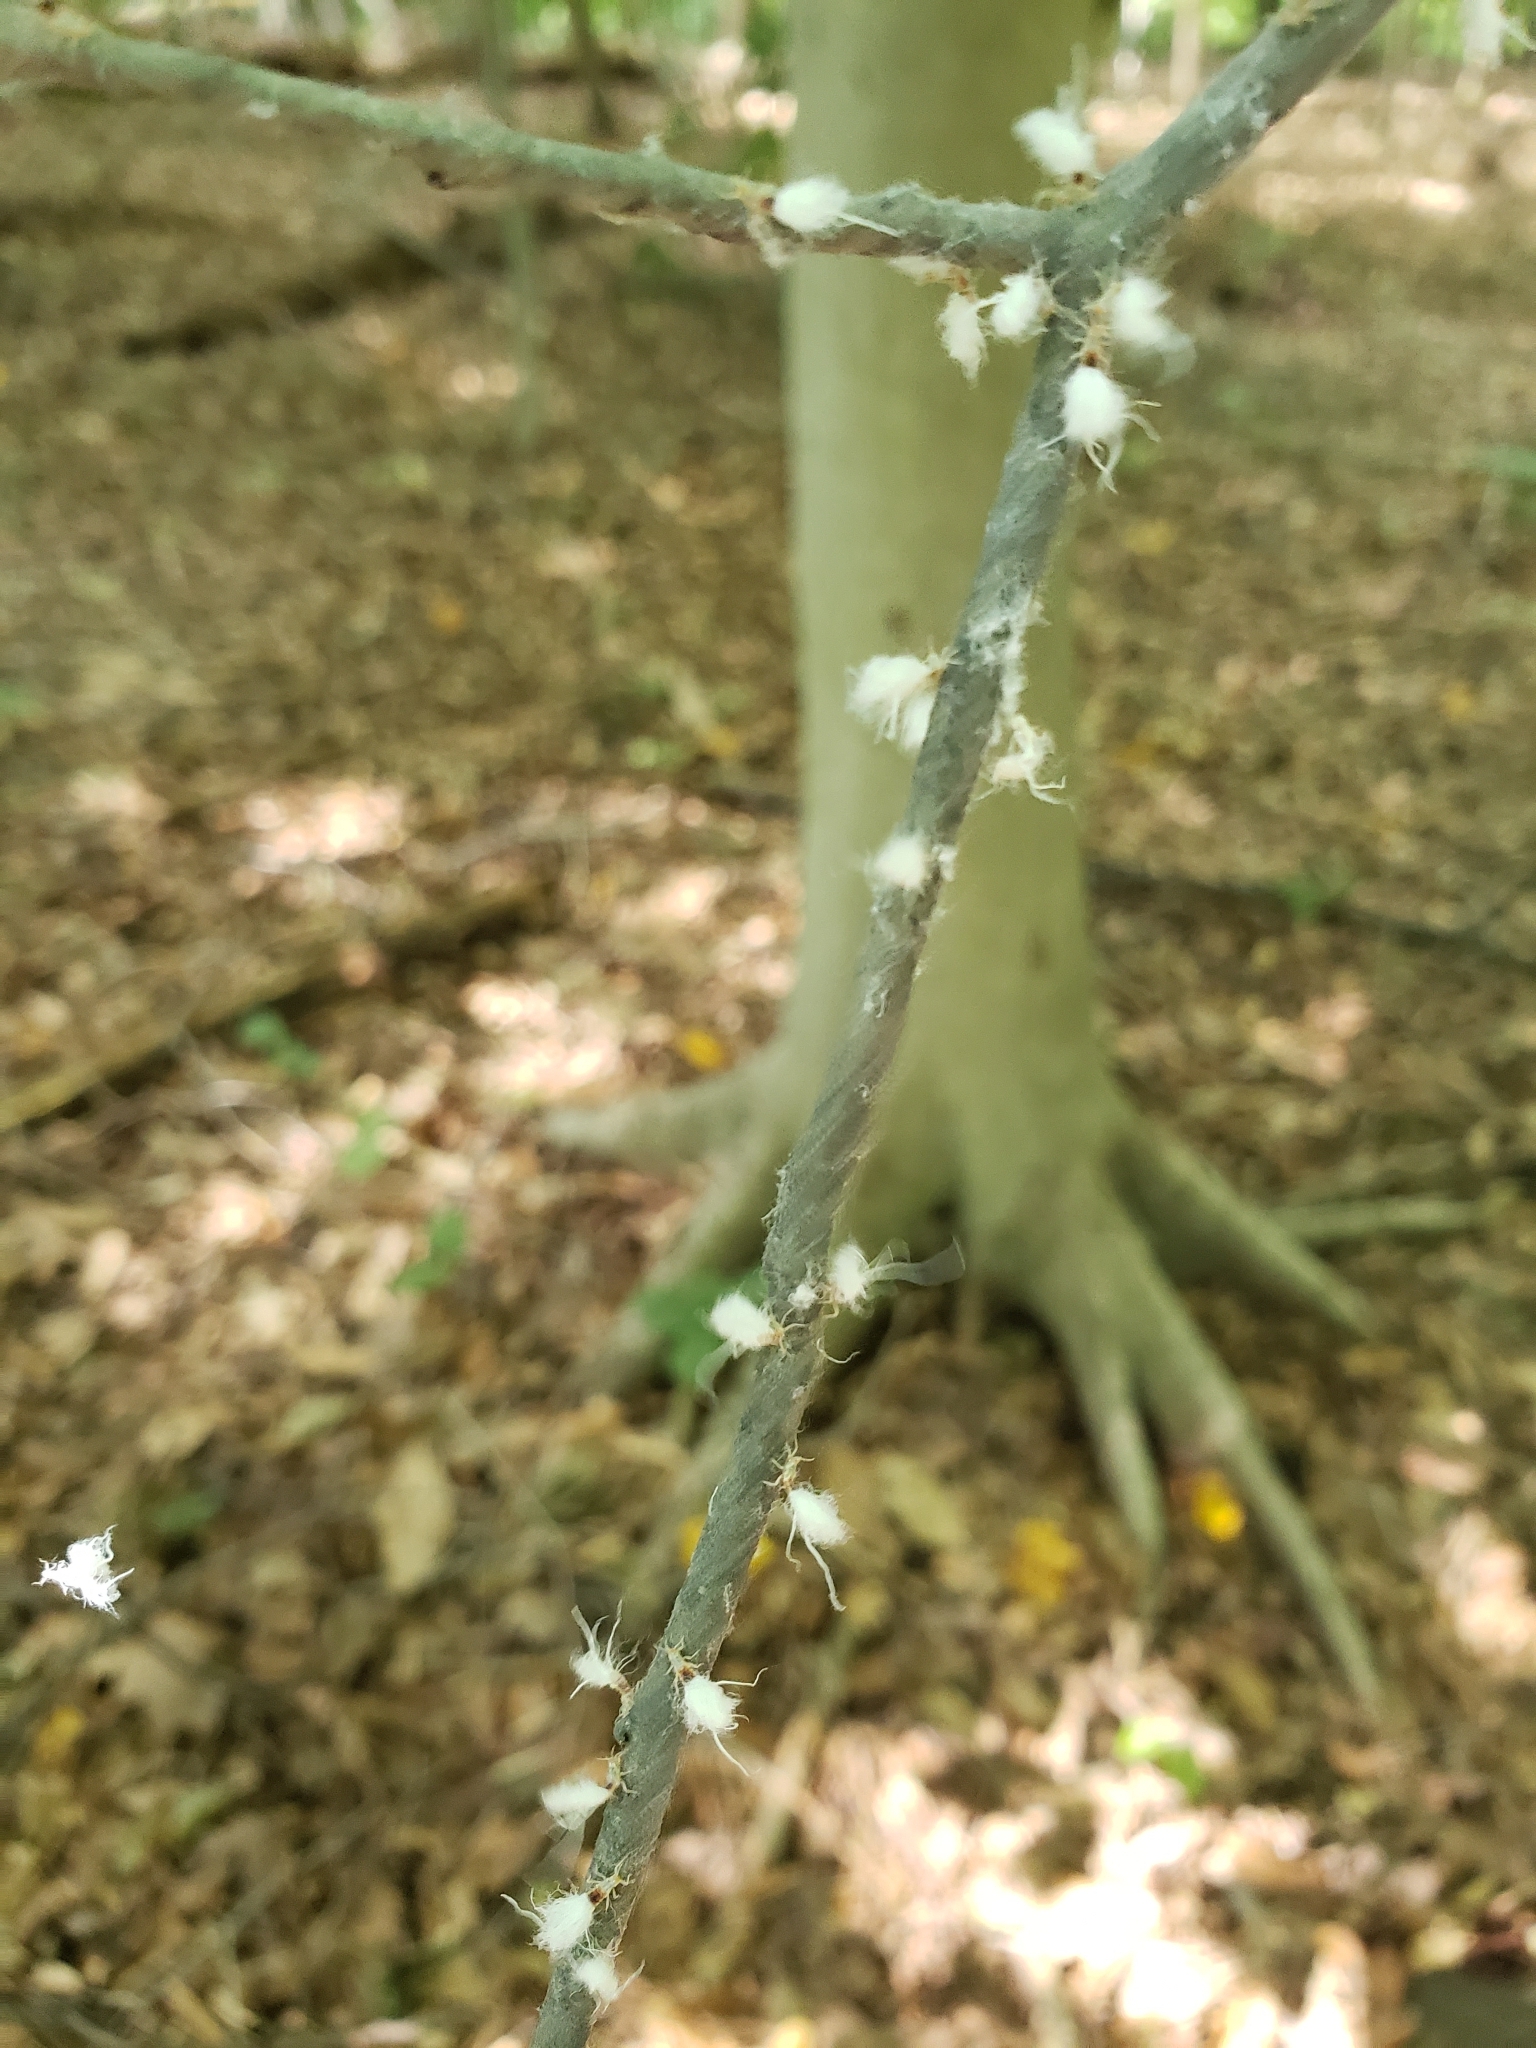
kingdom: Animalia
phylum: Arthropoda
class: Insecta
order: Hemiptera
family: Aphididae
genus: Grylloprociphilus
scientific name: Grylloprociphilus imbricator
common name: Beech blight aphid
